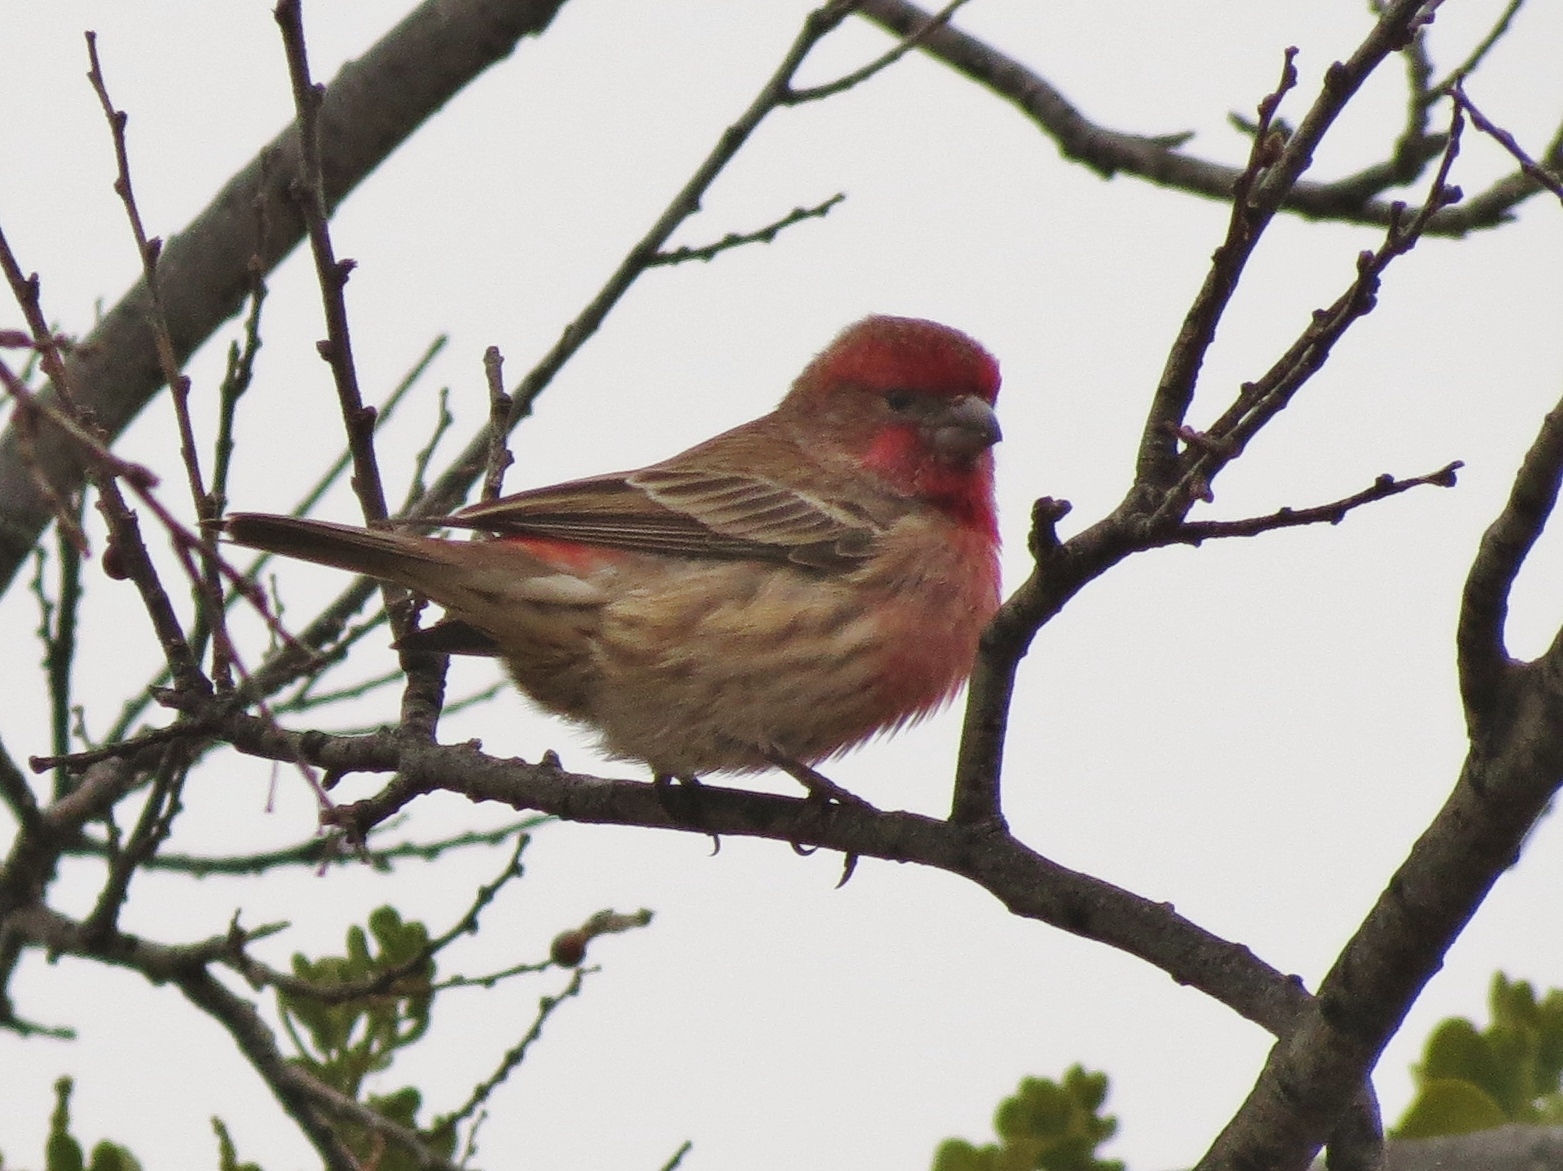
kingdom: Animalia
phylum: Chordata
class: Aves
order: Passeriformes
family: Fringillidae
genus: Haemorhous
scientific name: Haemorhous mexicanus
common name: House finch
